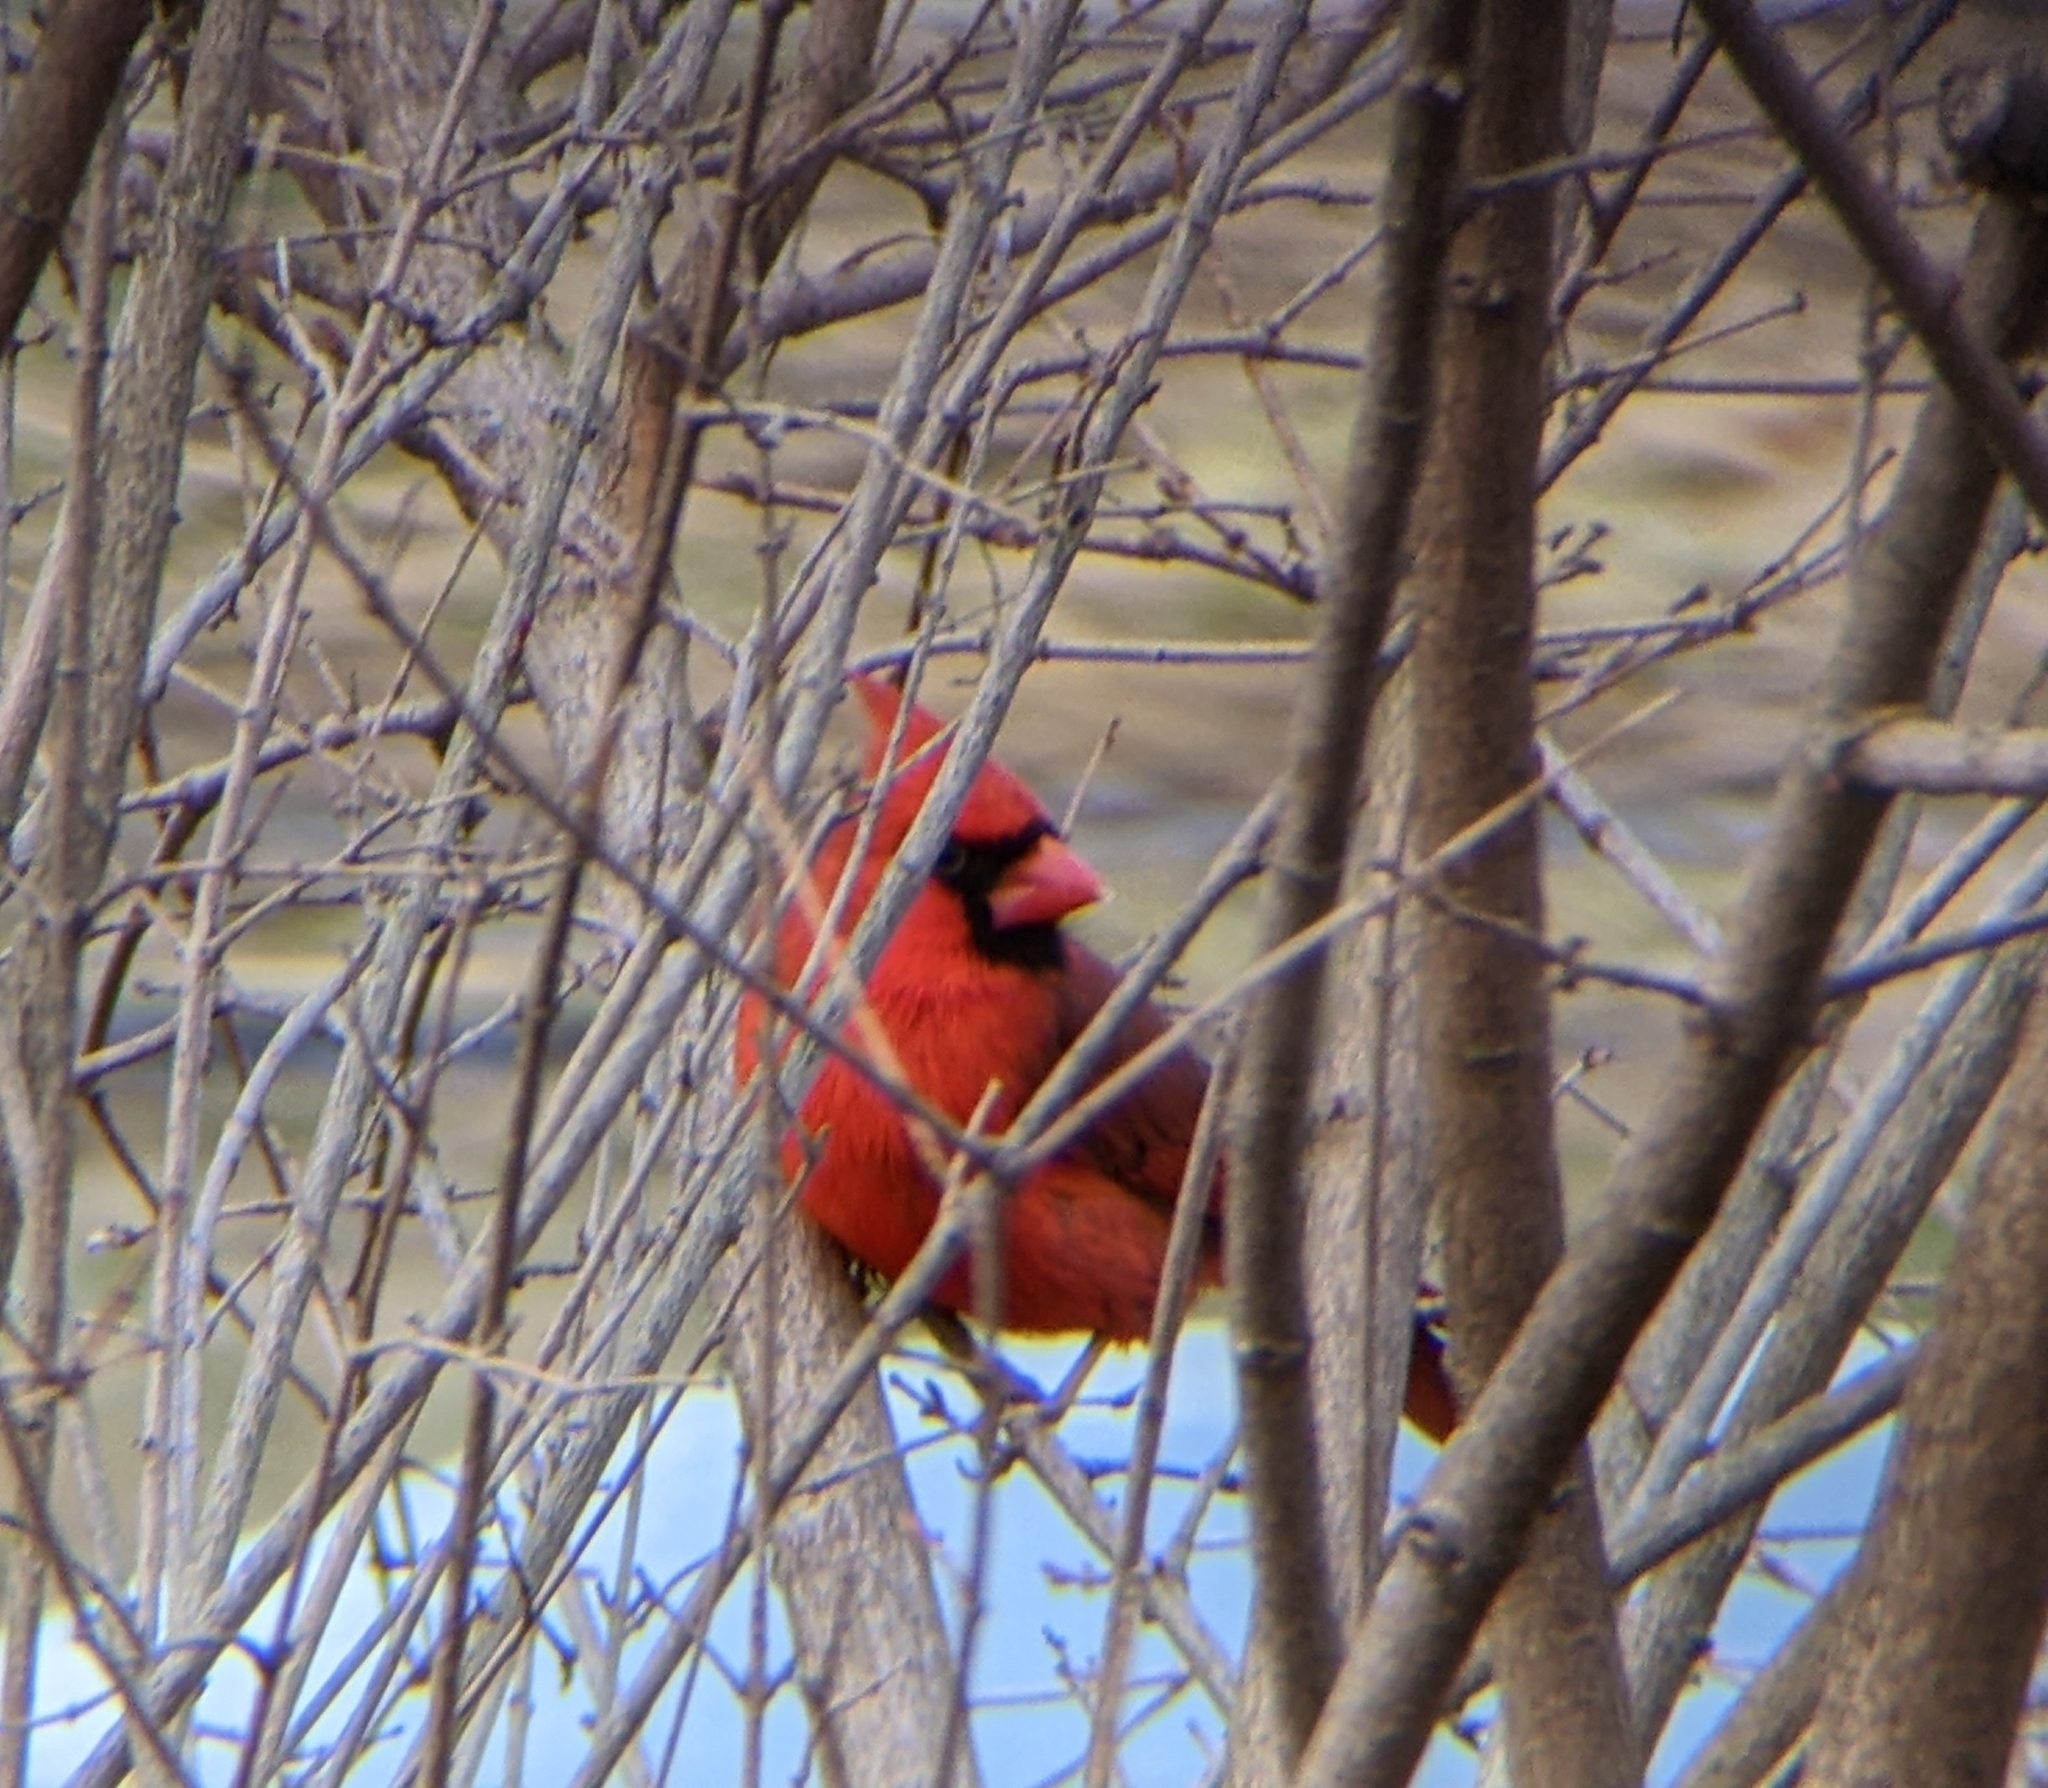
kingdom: Animalia
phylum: Chordata
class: Aves
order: Passeriformes
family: Cardinalidae
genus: Cardinalis
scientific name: Cardinalis cardinalis
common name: Northern cardinal
